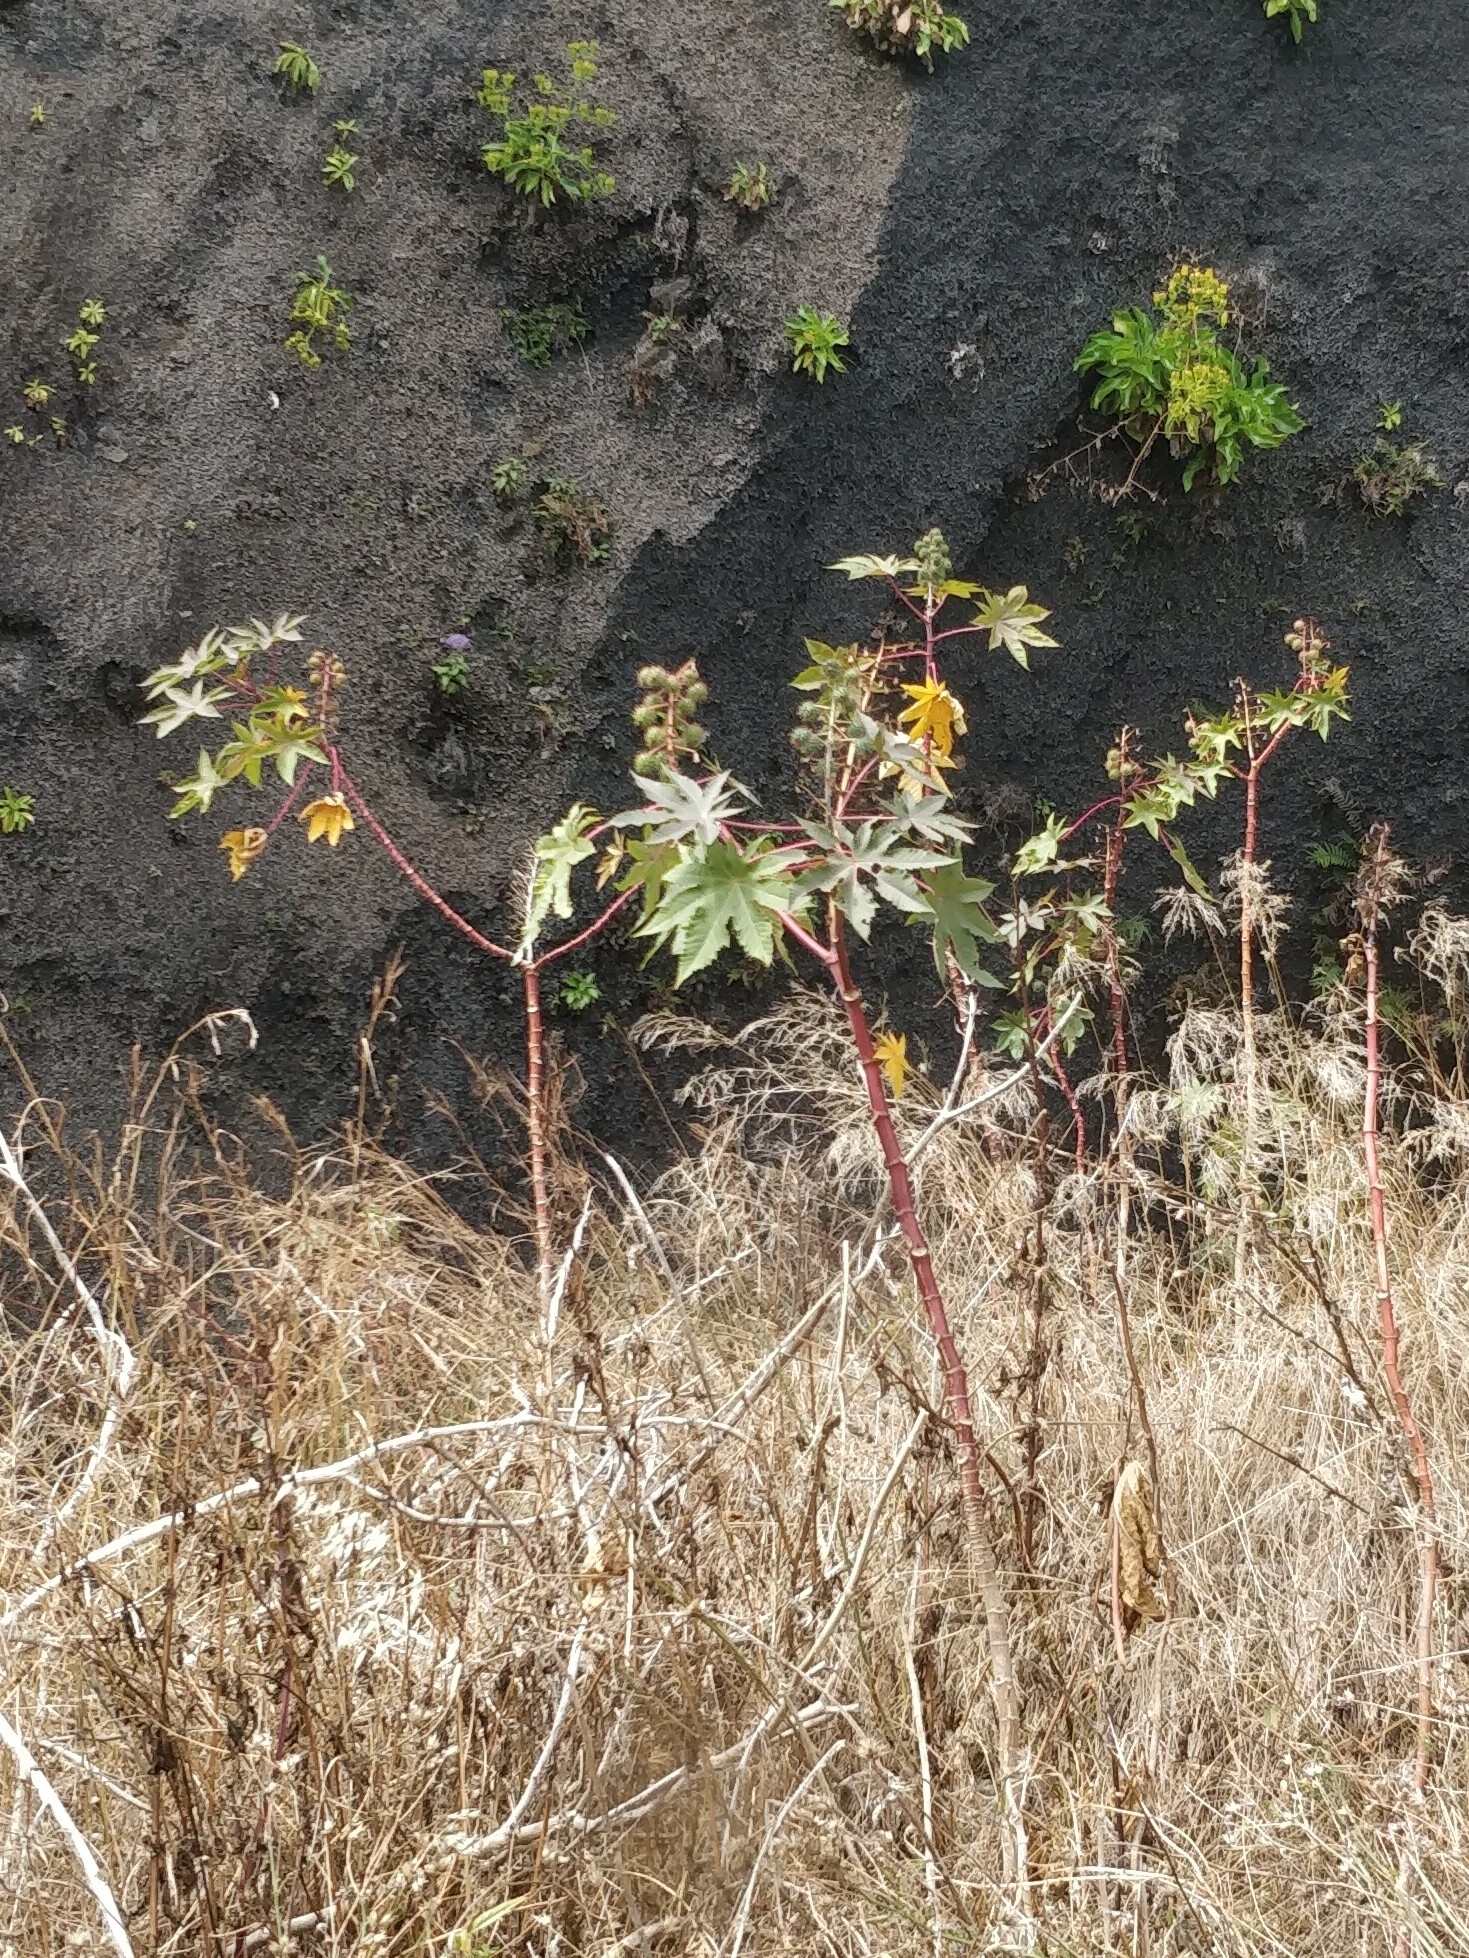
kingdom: Plantae
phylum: Tracheophyta
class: Magnoliopsida
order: Malpighiales
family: Euphorbiaceae
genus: Ricinus
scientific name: Ricinus communis
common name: Castor-oil-plant
